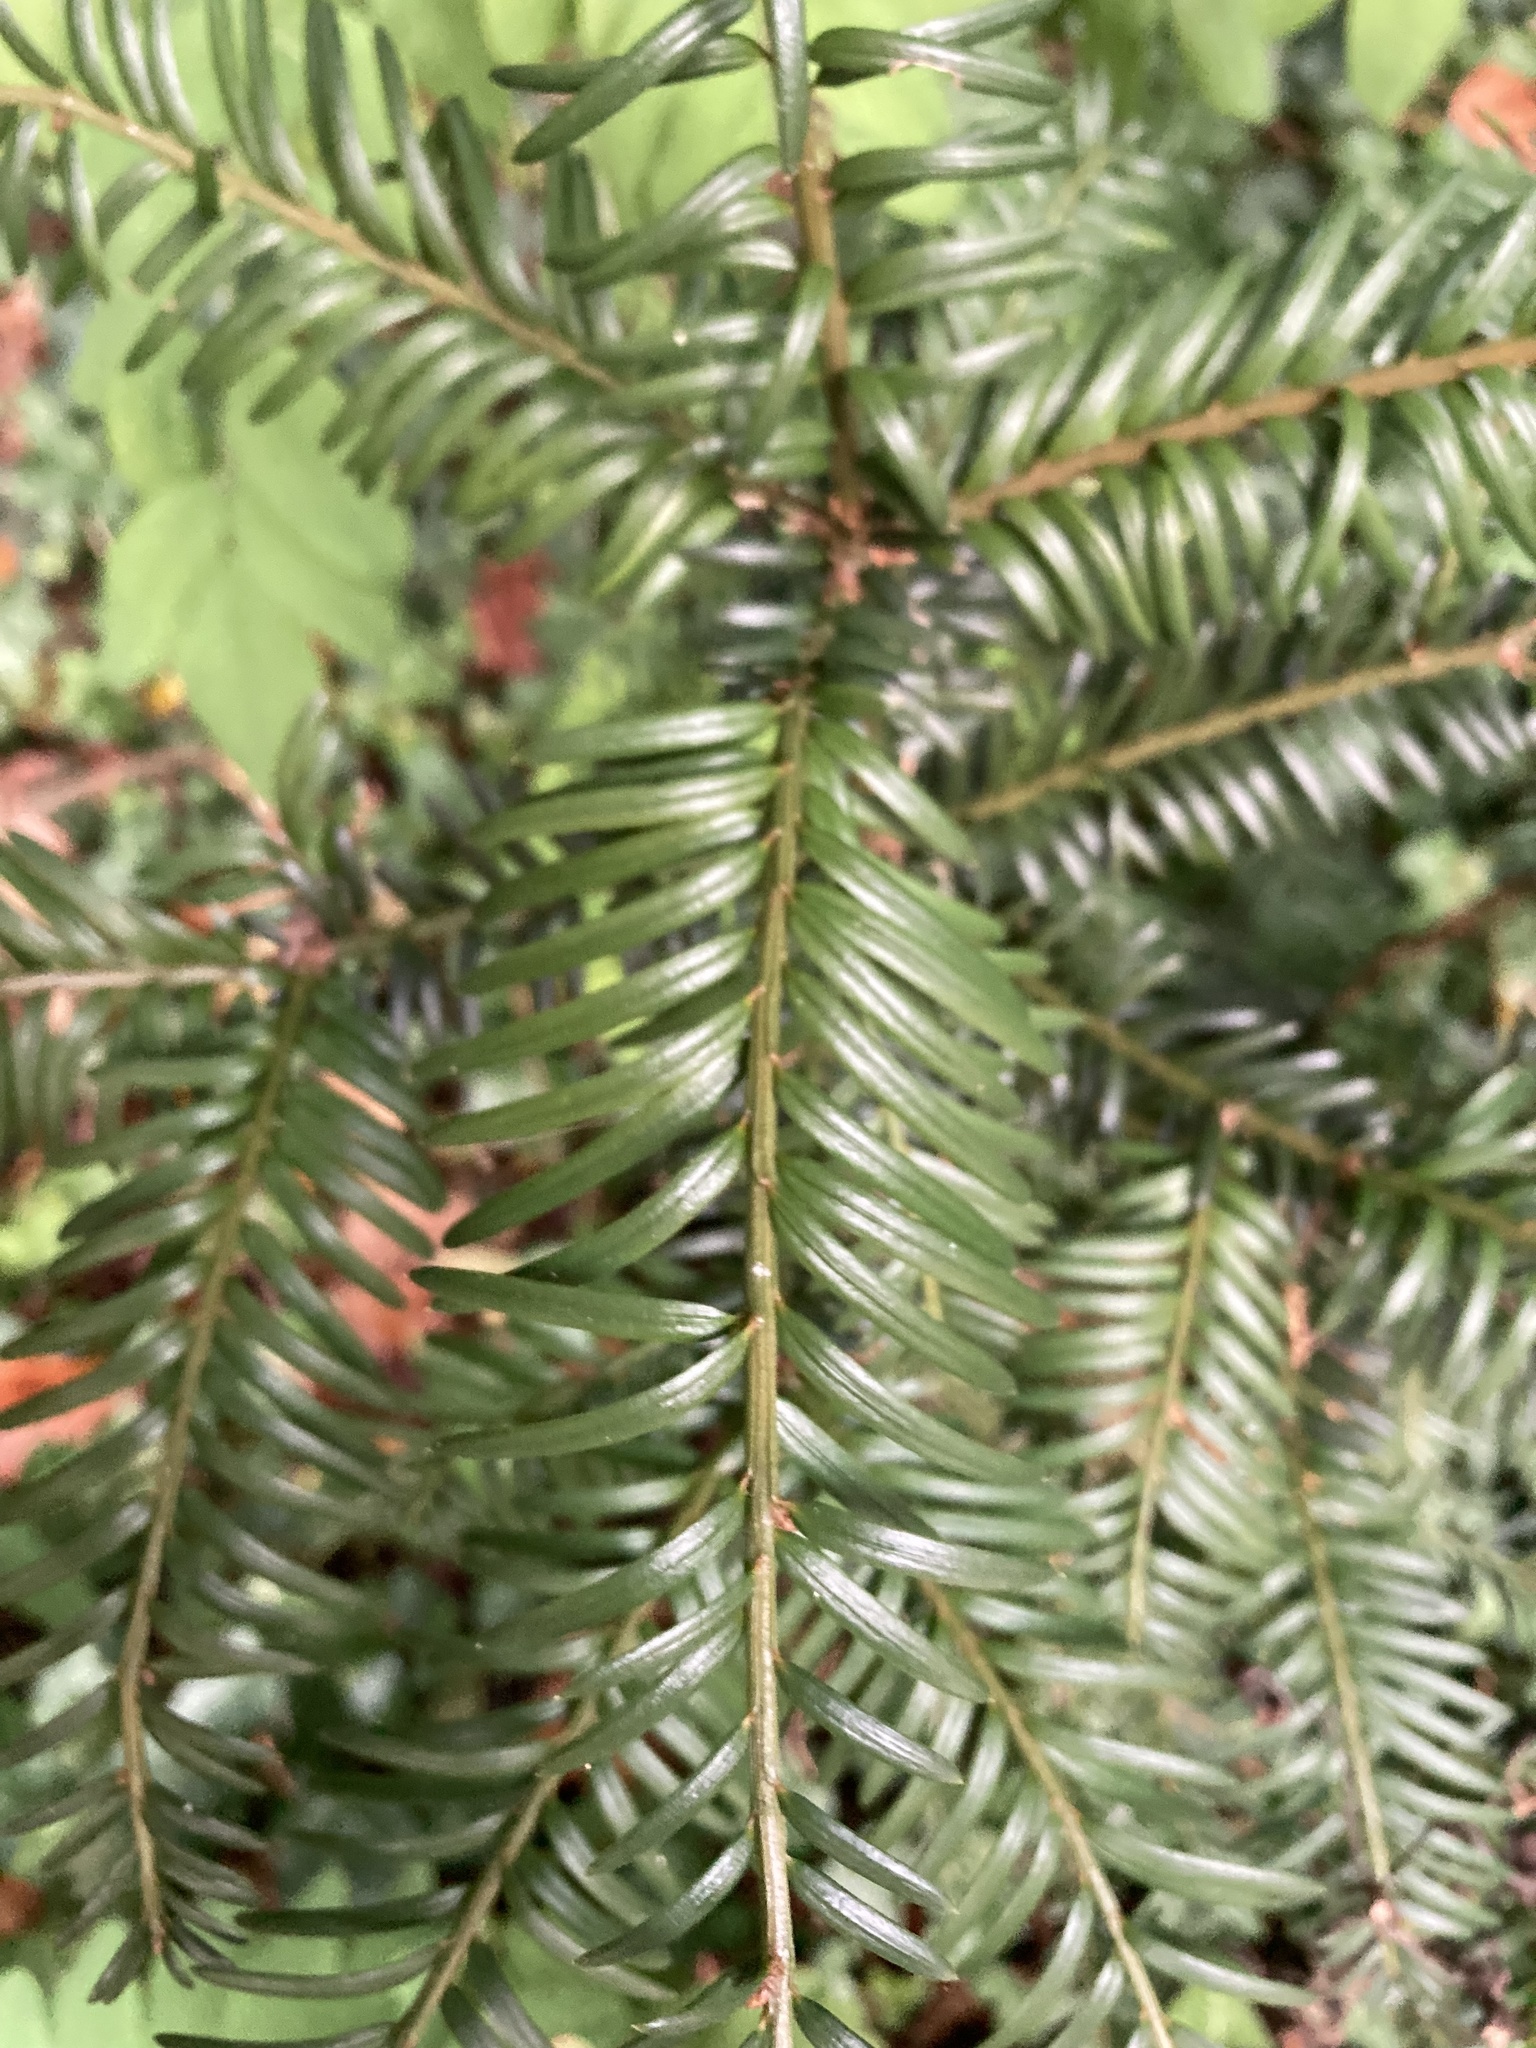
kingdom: Plantae
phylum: Tracheophyta
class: Pinopsida
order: Pinales
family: Taxaceae
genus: Taxus
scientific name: Taxus baccata
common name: Yew
